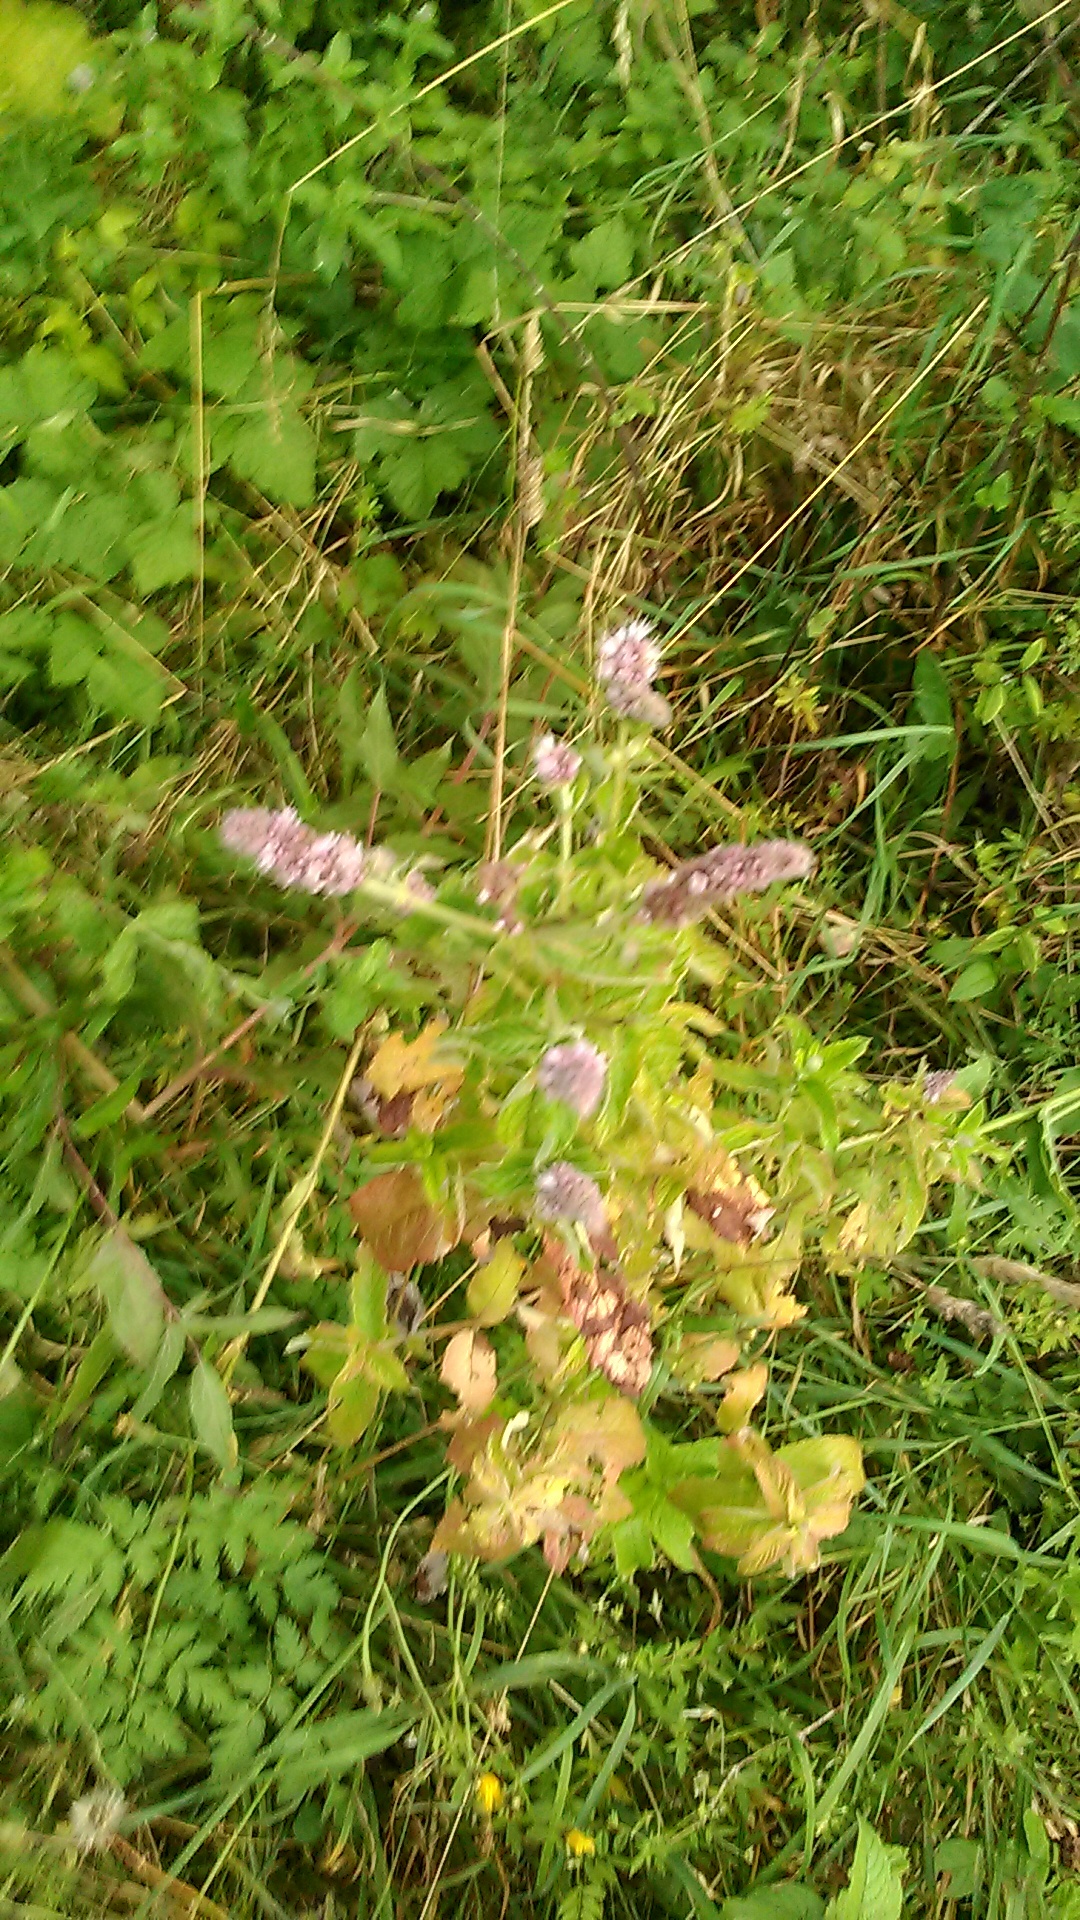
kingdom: Plantae
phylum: Tracheophyta
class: Magnoliopsida
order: Lamiales
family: Lamiaceae
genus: Mentha
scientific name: Mentha longifolia
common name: Horse mint
